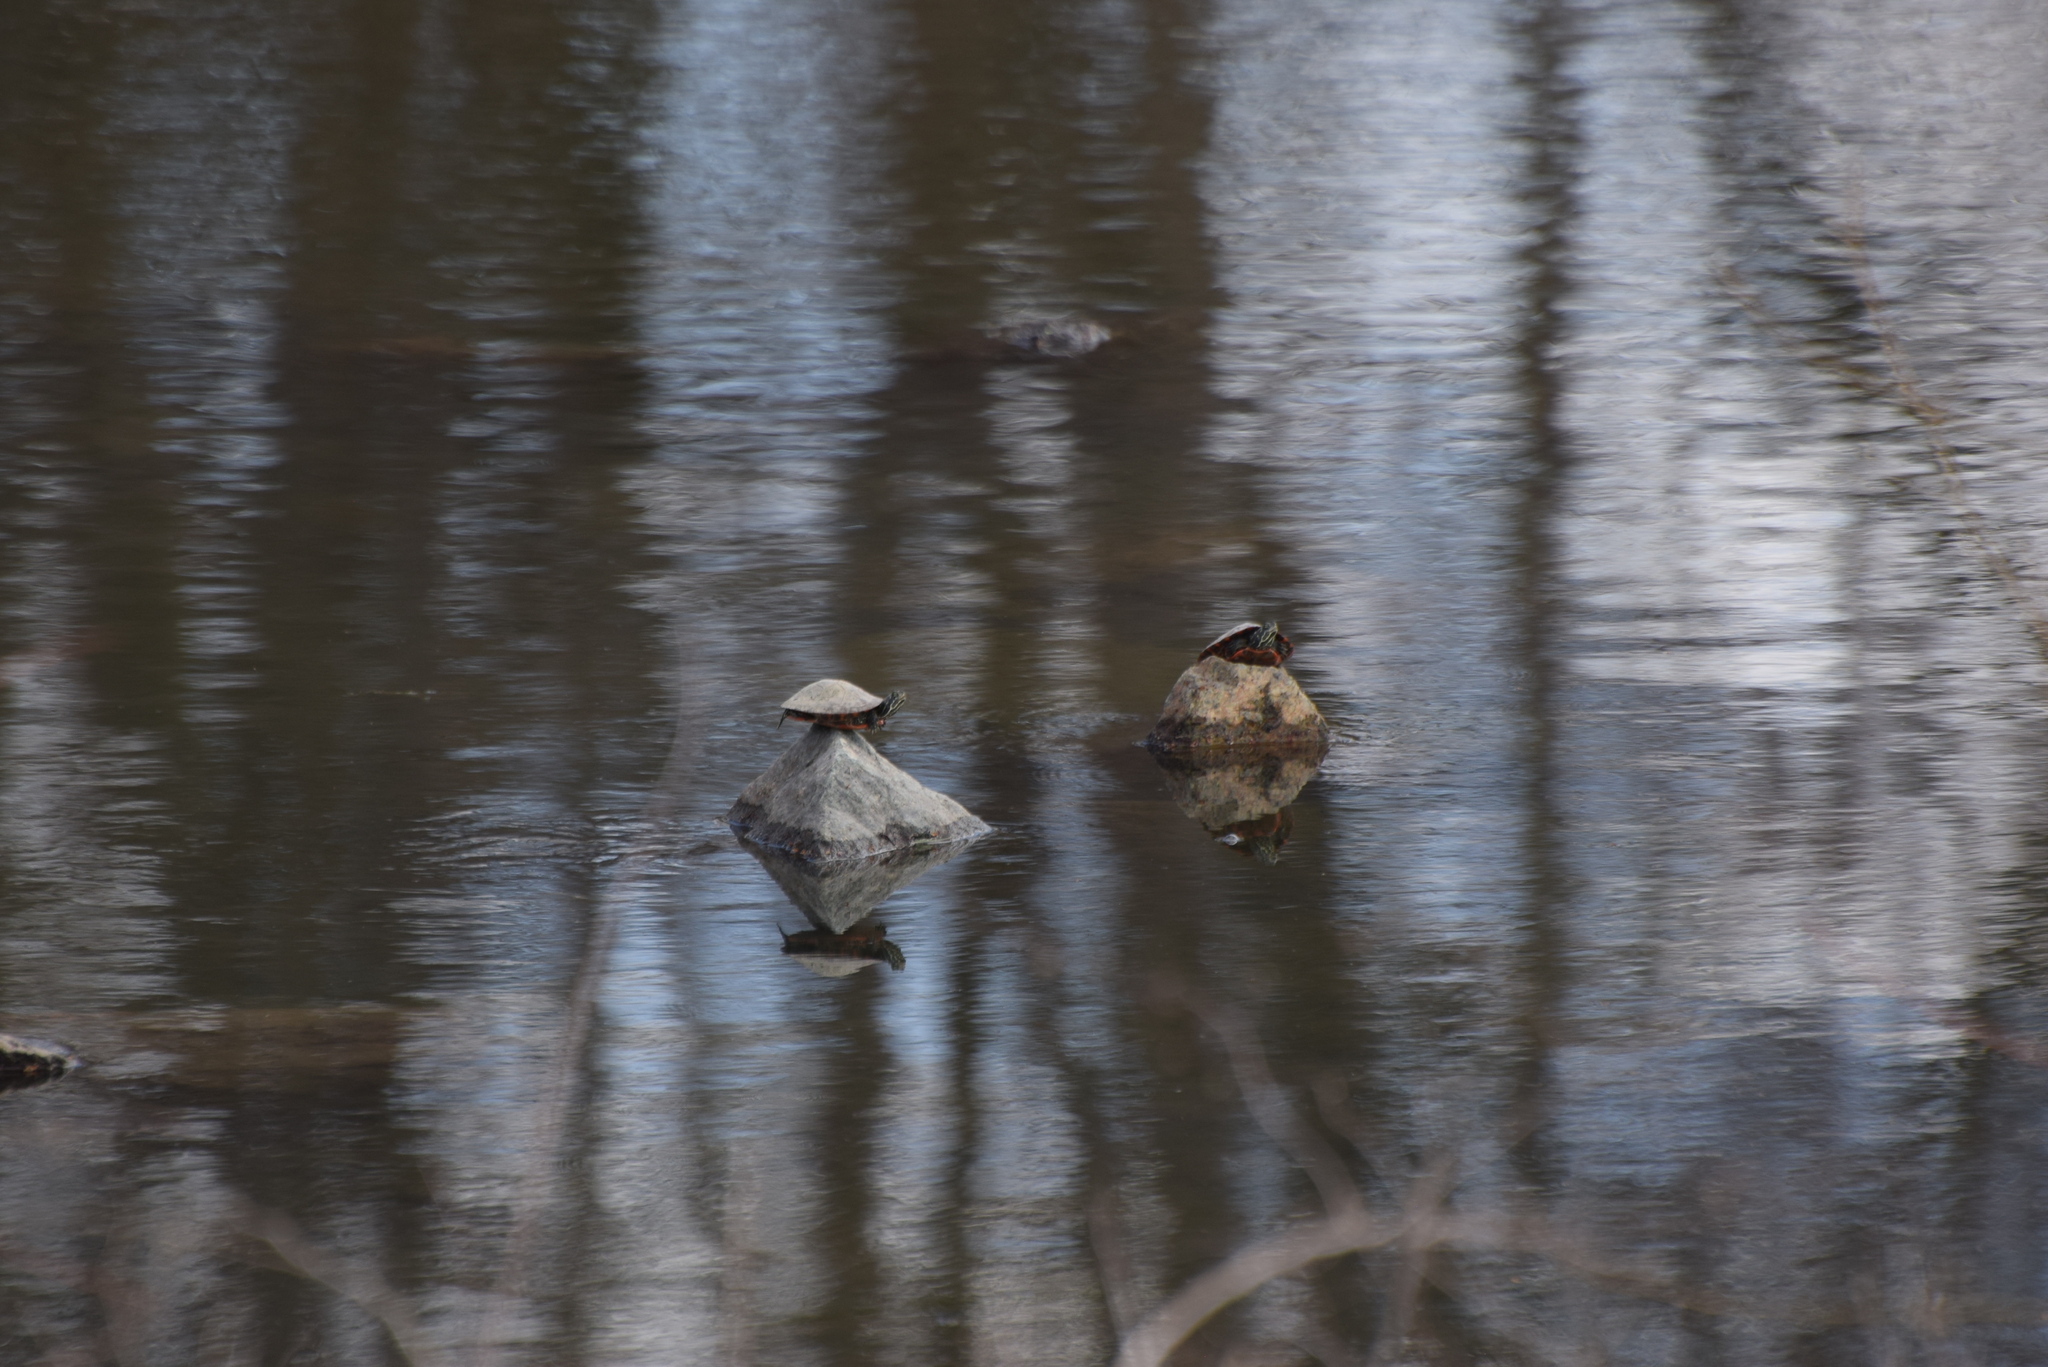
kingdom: Animalia
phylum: Chordata
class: Testudines
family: Emydidae
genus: Pseudemys
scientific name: Pseudemys rubriventris
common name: American red-bellied turtle
